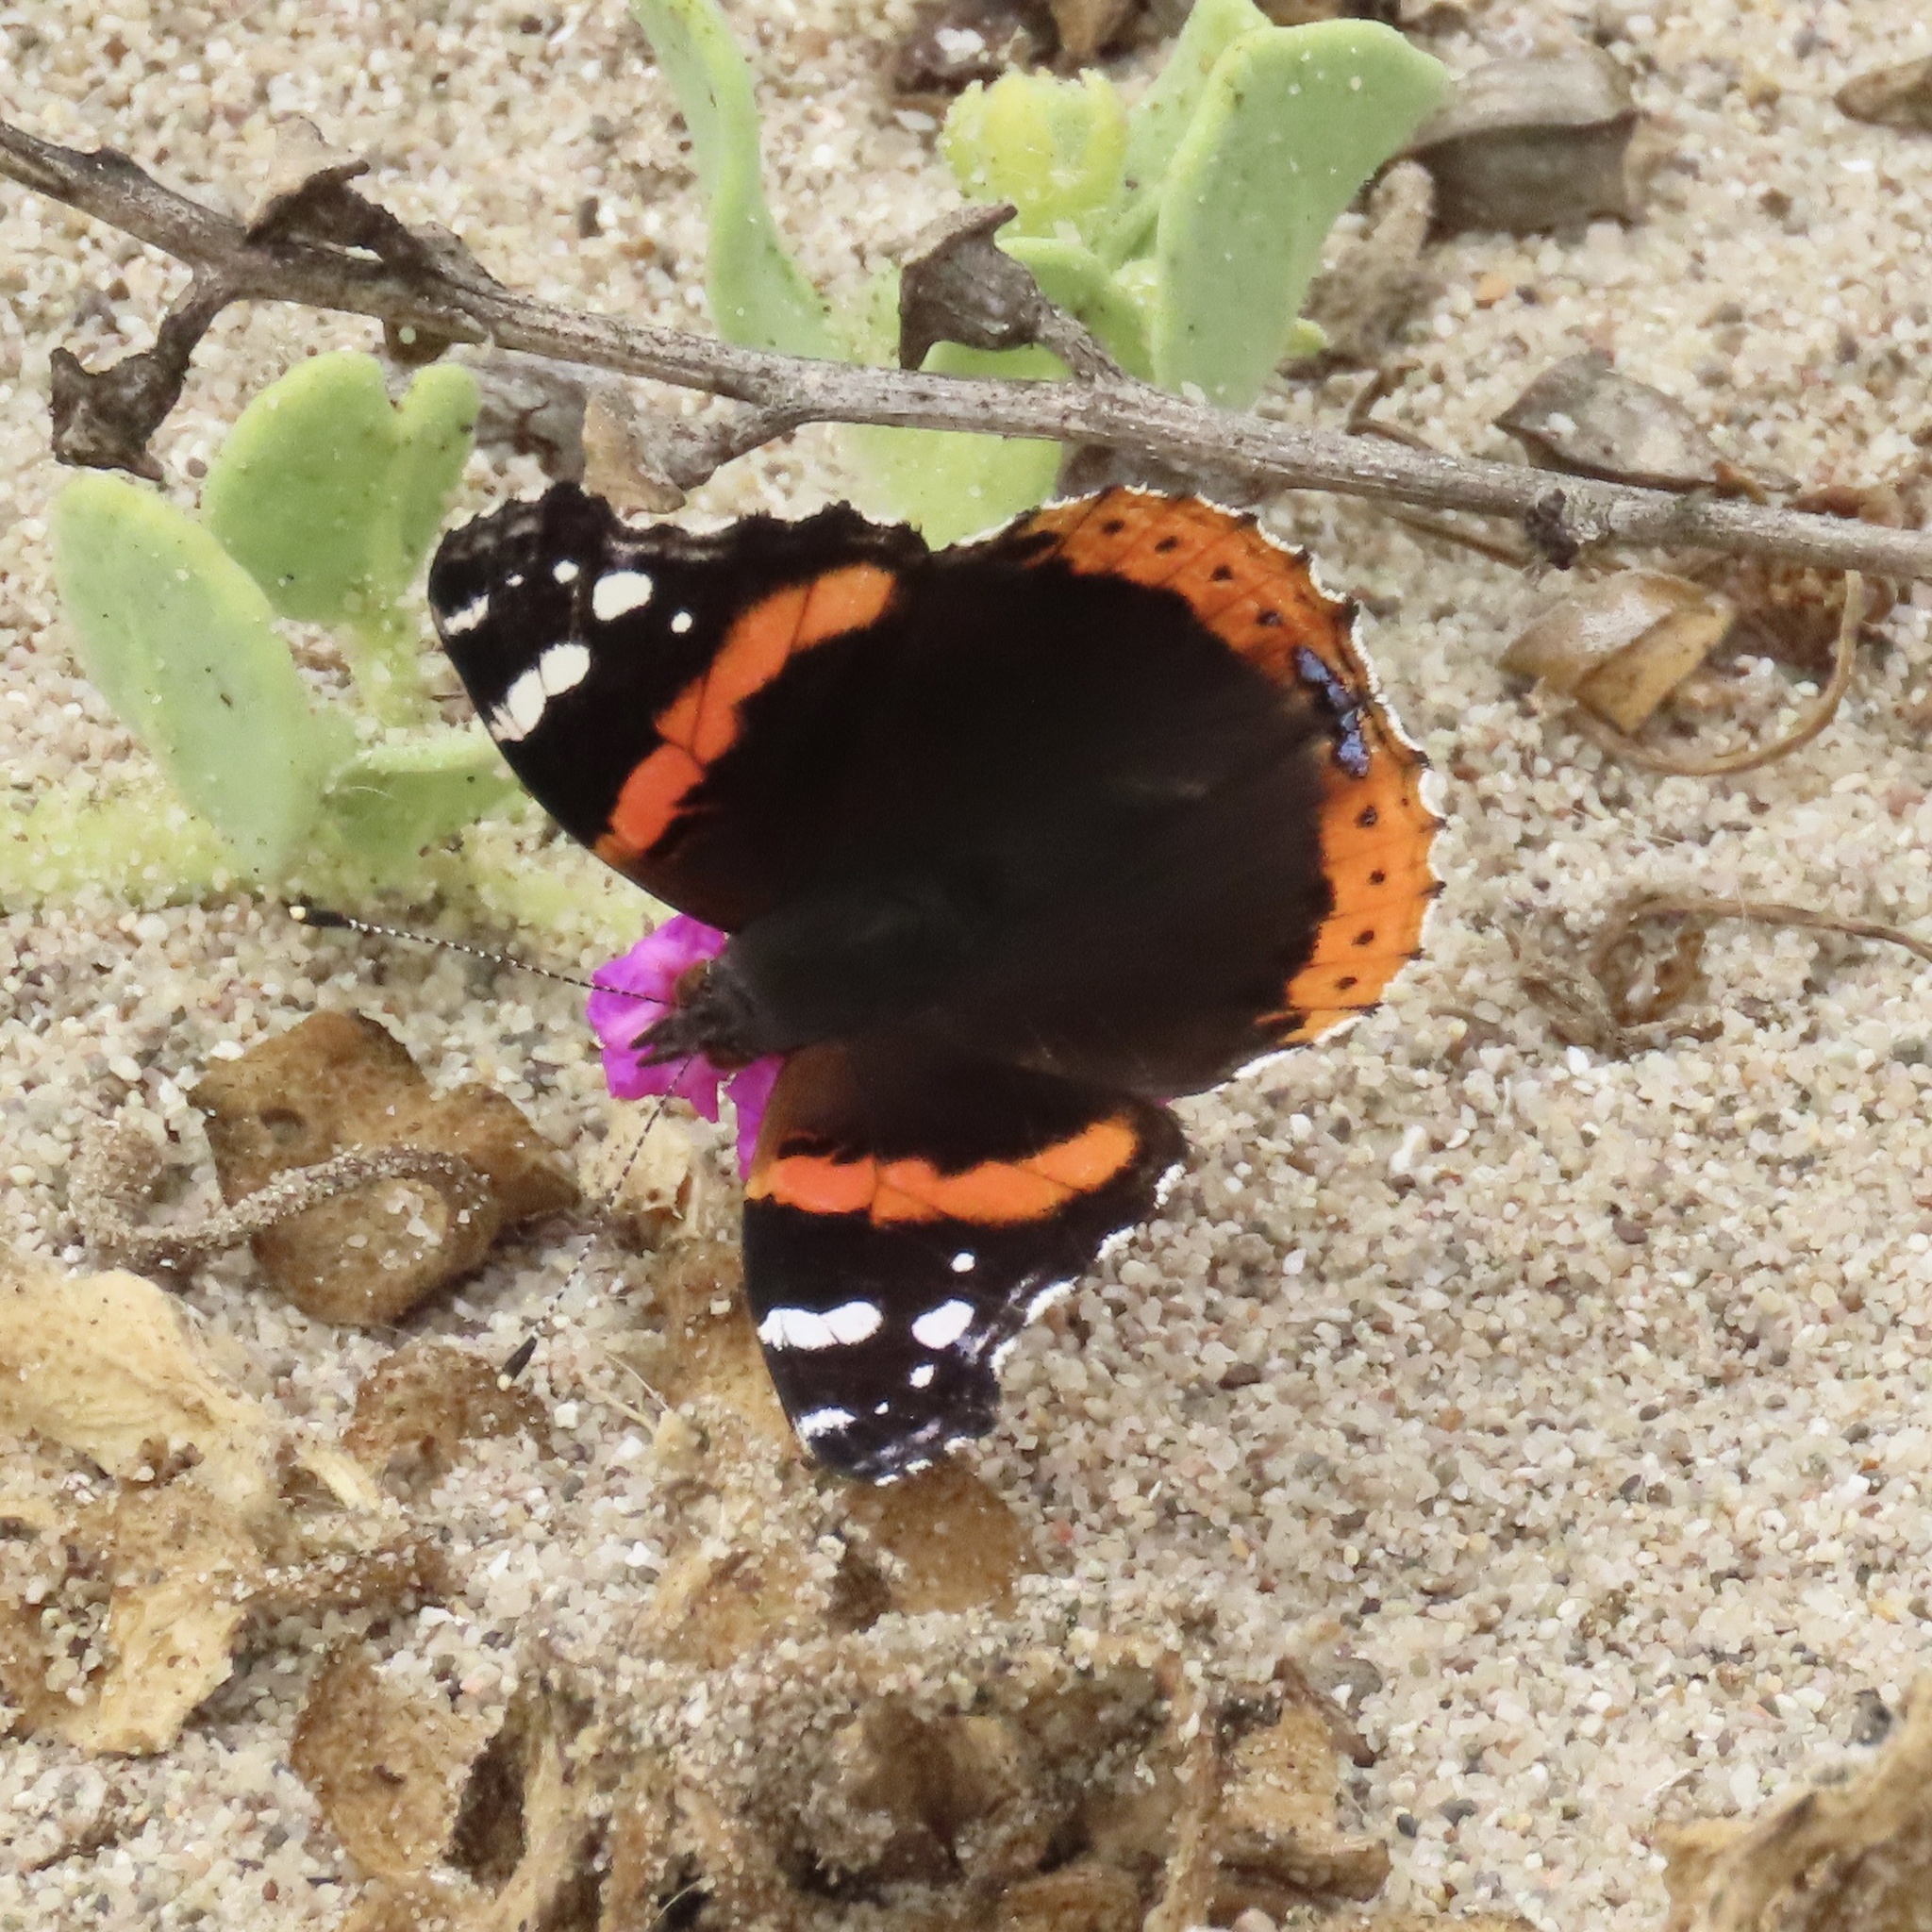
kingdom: Animalia
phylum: Arthropoda
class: Insecta
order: Lepidoptera
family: Nymphalidae
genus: Vanessa
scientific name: Vanessa atalanta
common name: Red admiral
